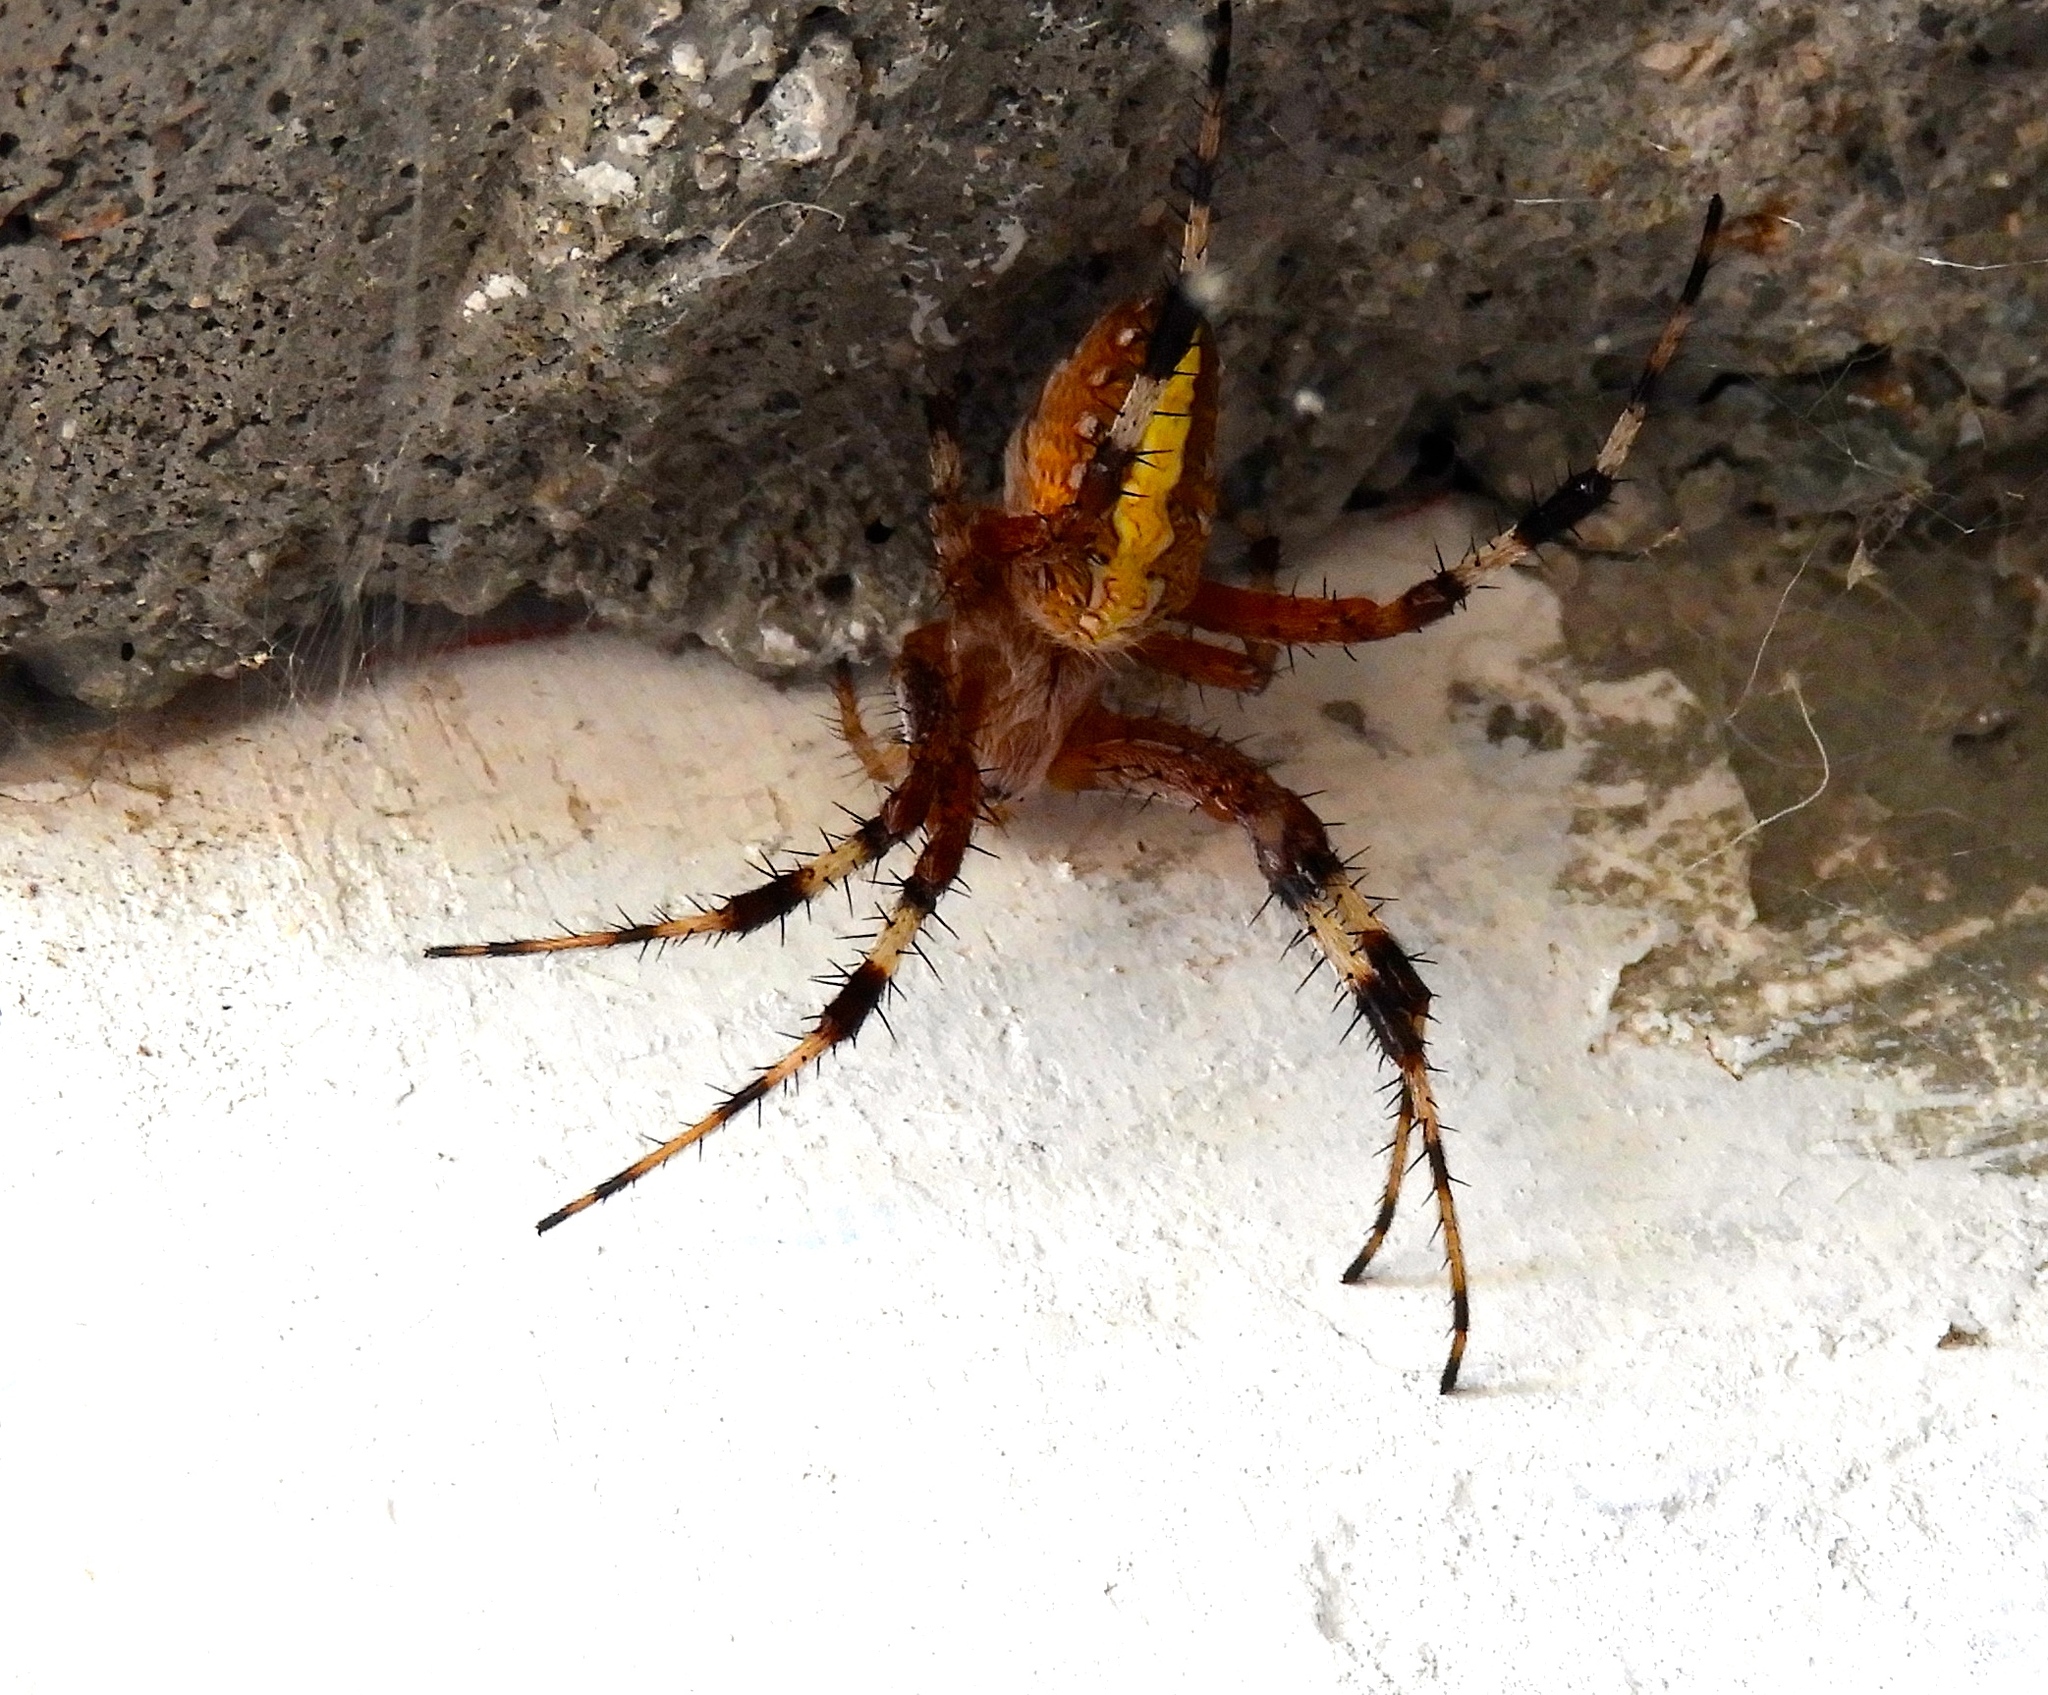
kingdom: Animalia
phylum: Arthropoda
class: Arachnida
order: Araneae
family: Araneidae
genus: Neoscona
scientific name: Neoscona oaxacensis
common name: Orb weavers
